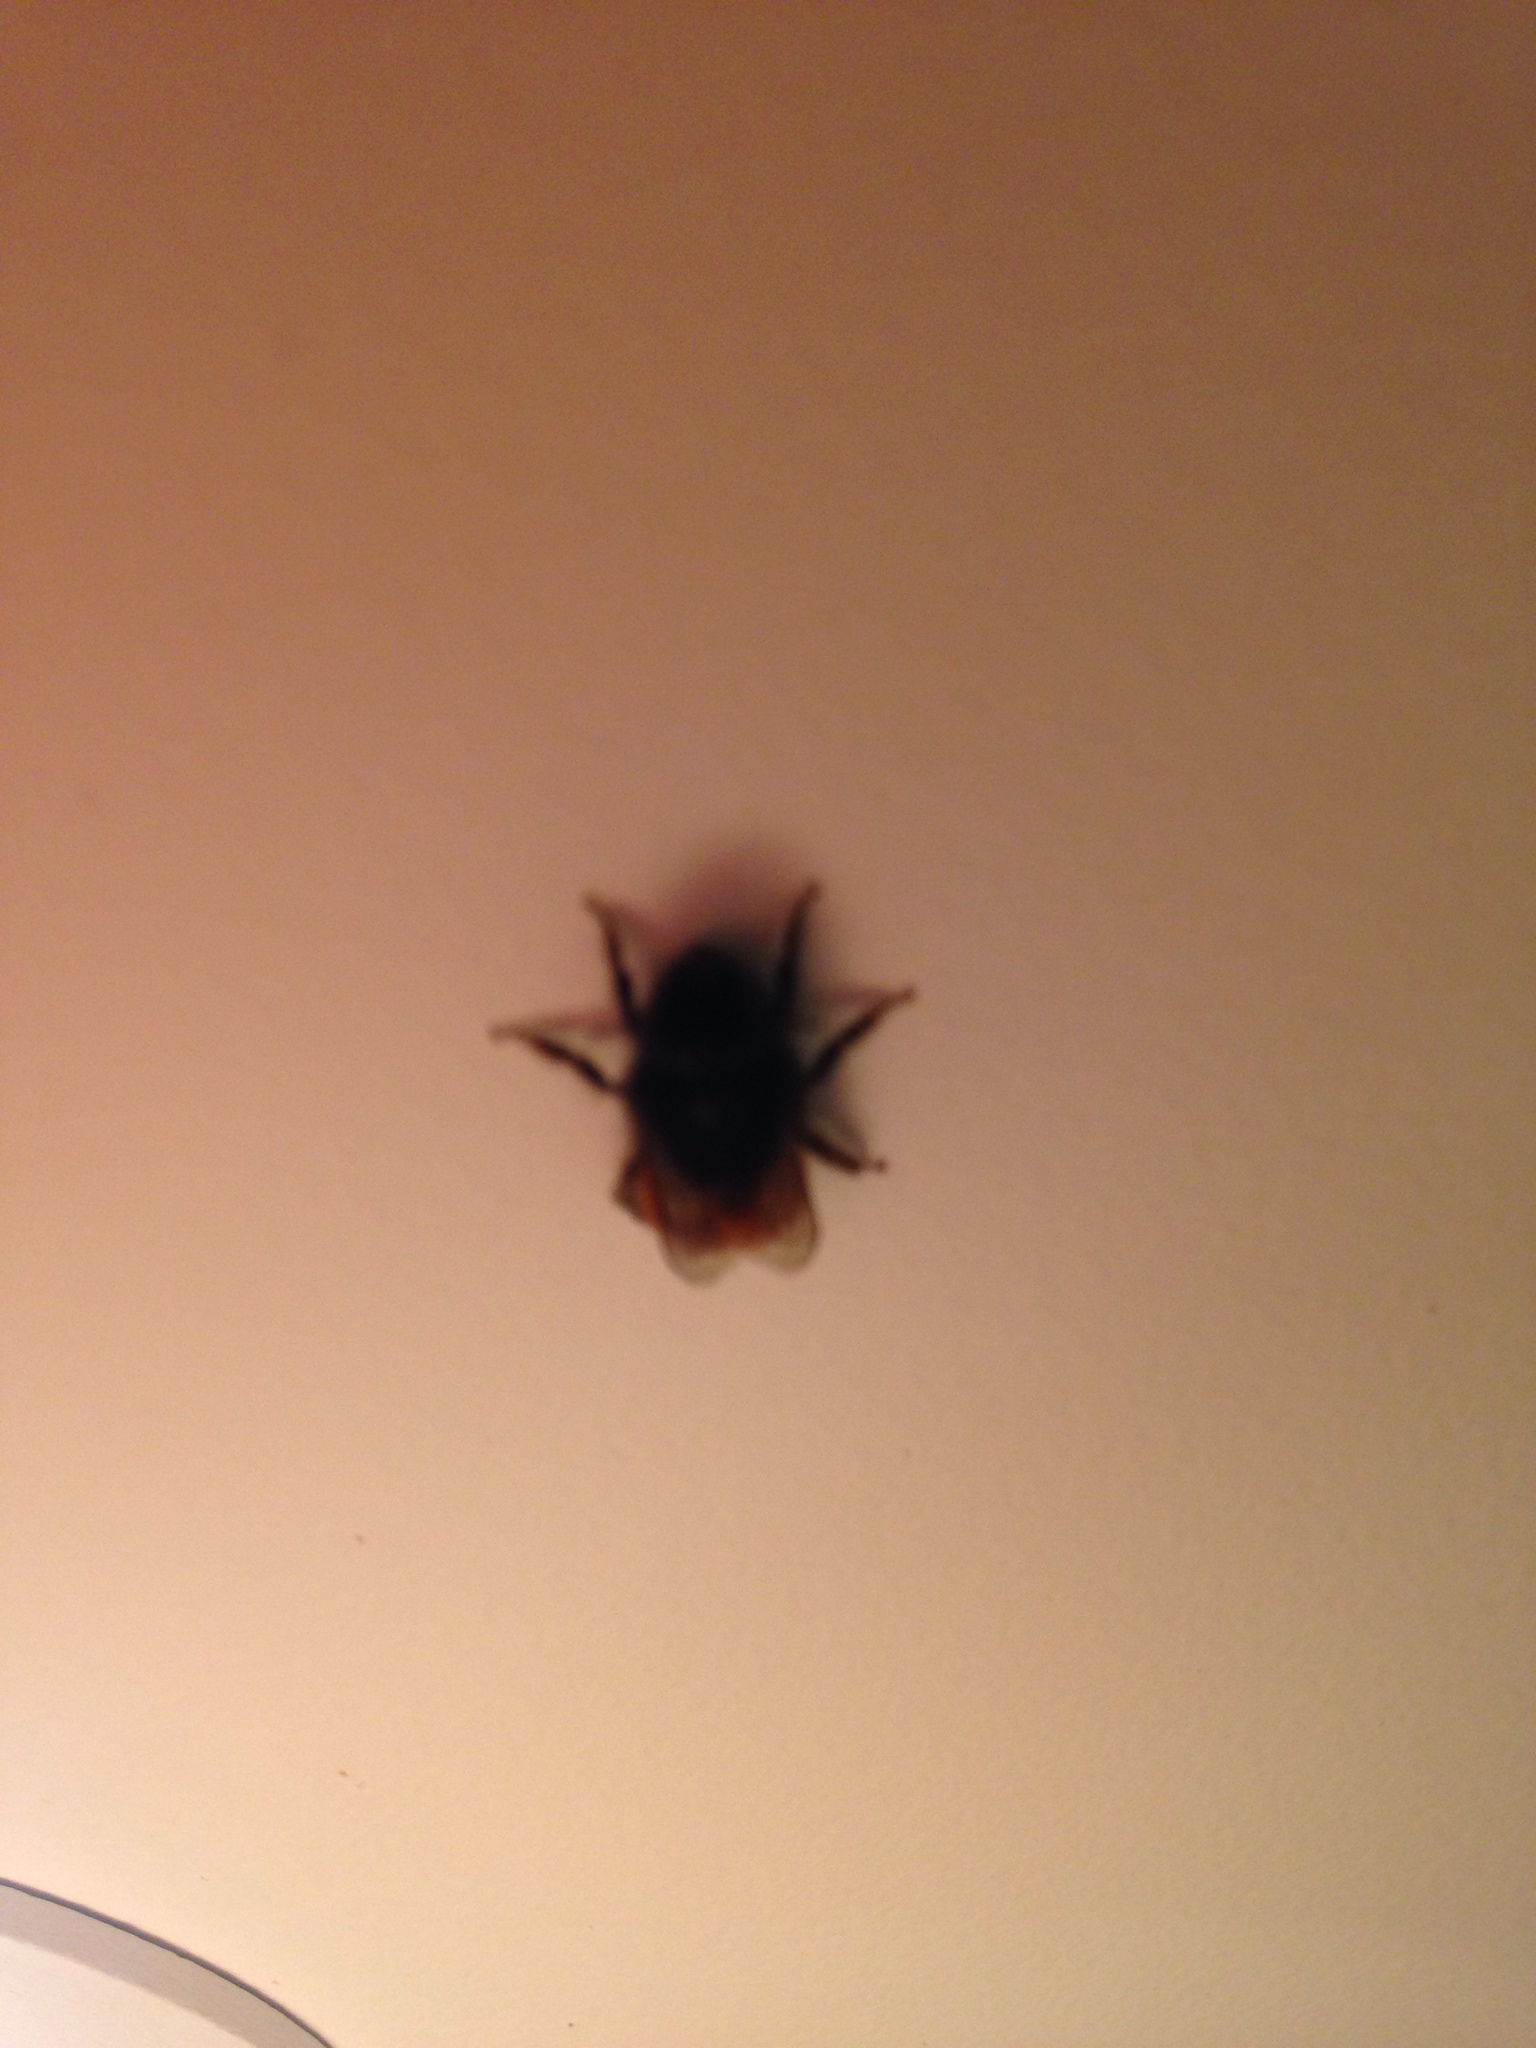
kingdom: Animalia
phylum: Arthropoda
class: Insecta
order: Hymenoptera
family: Apidae
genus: Bombus
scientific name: Bombus lapidarius
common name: Large red-tailed humble-bee
